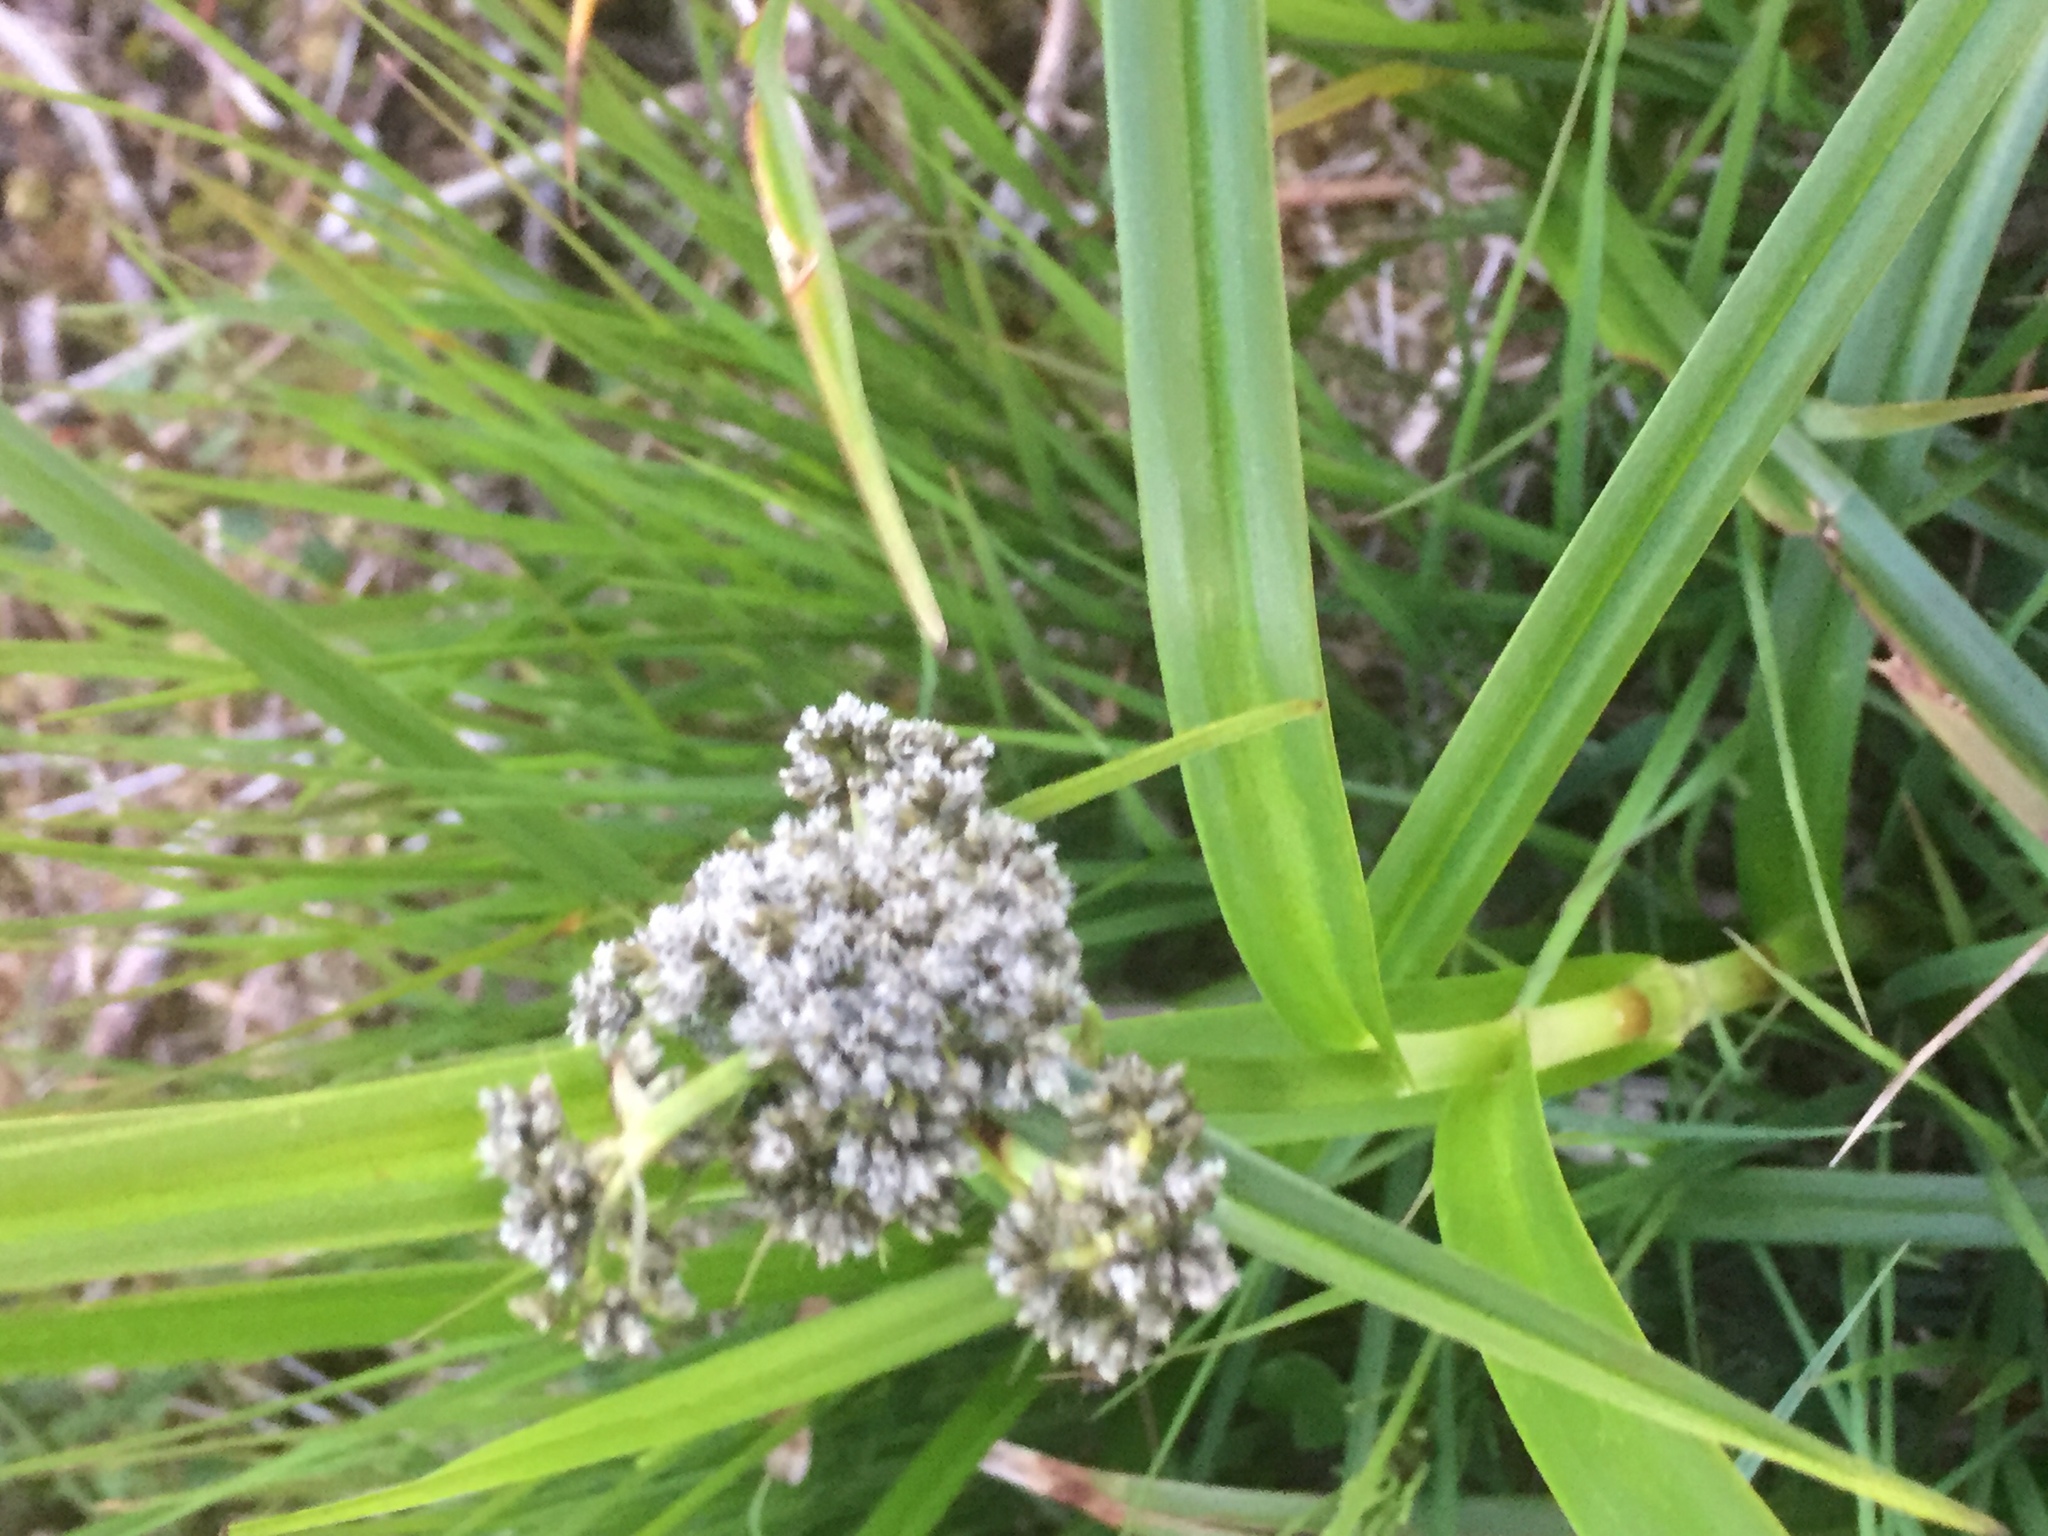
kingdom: Plantae
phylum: Tracheophyta
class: Liliopsida
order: Poales
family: Cyperaceae
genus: Scirpus
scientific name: Scirpus sylvaticus
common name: Wood club-rush
